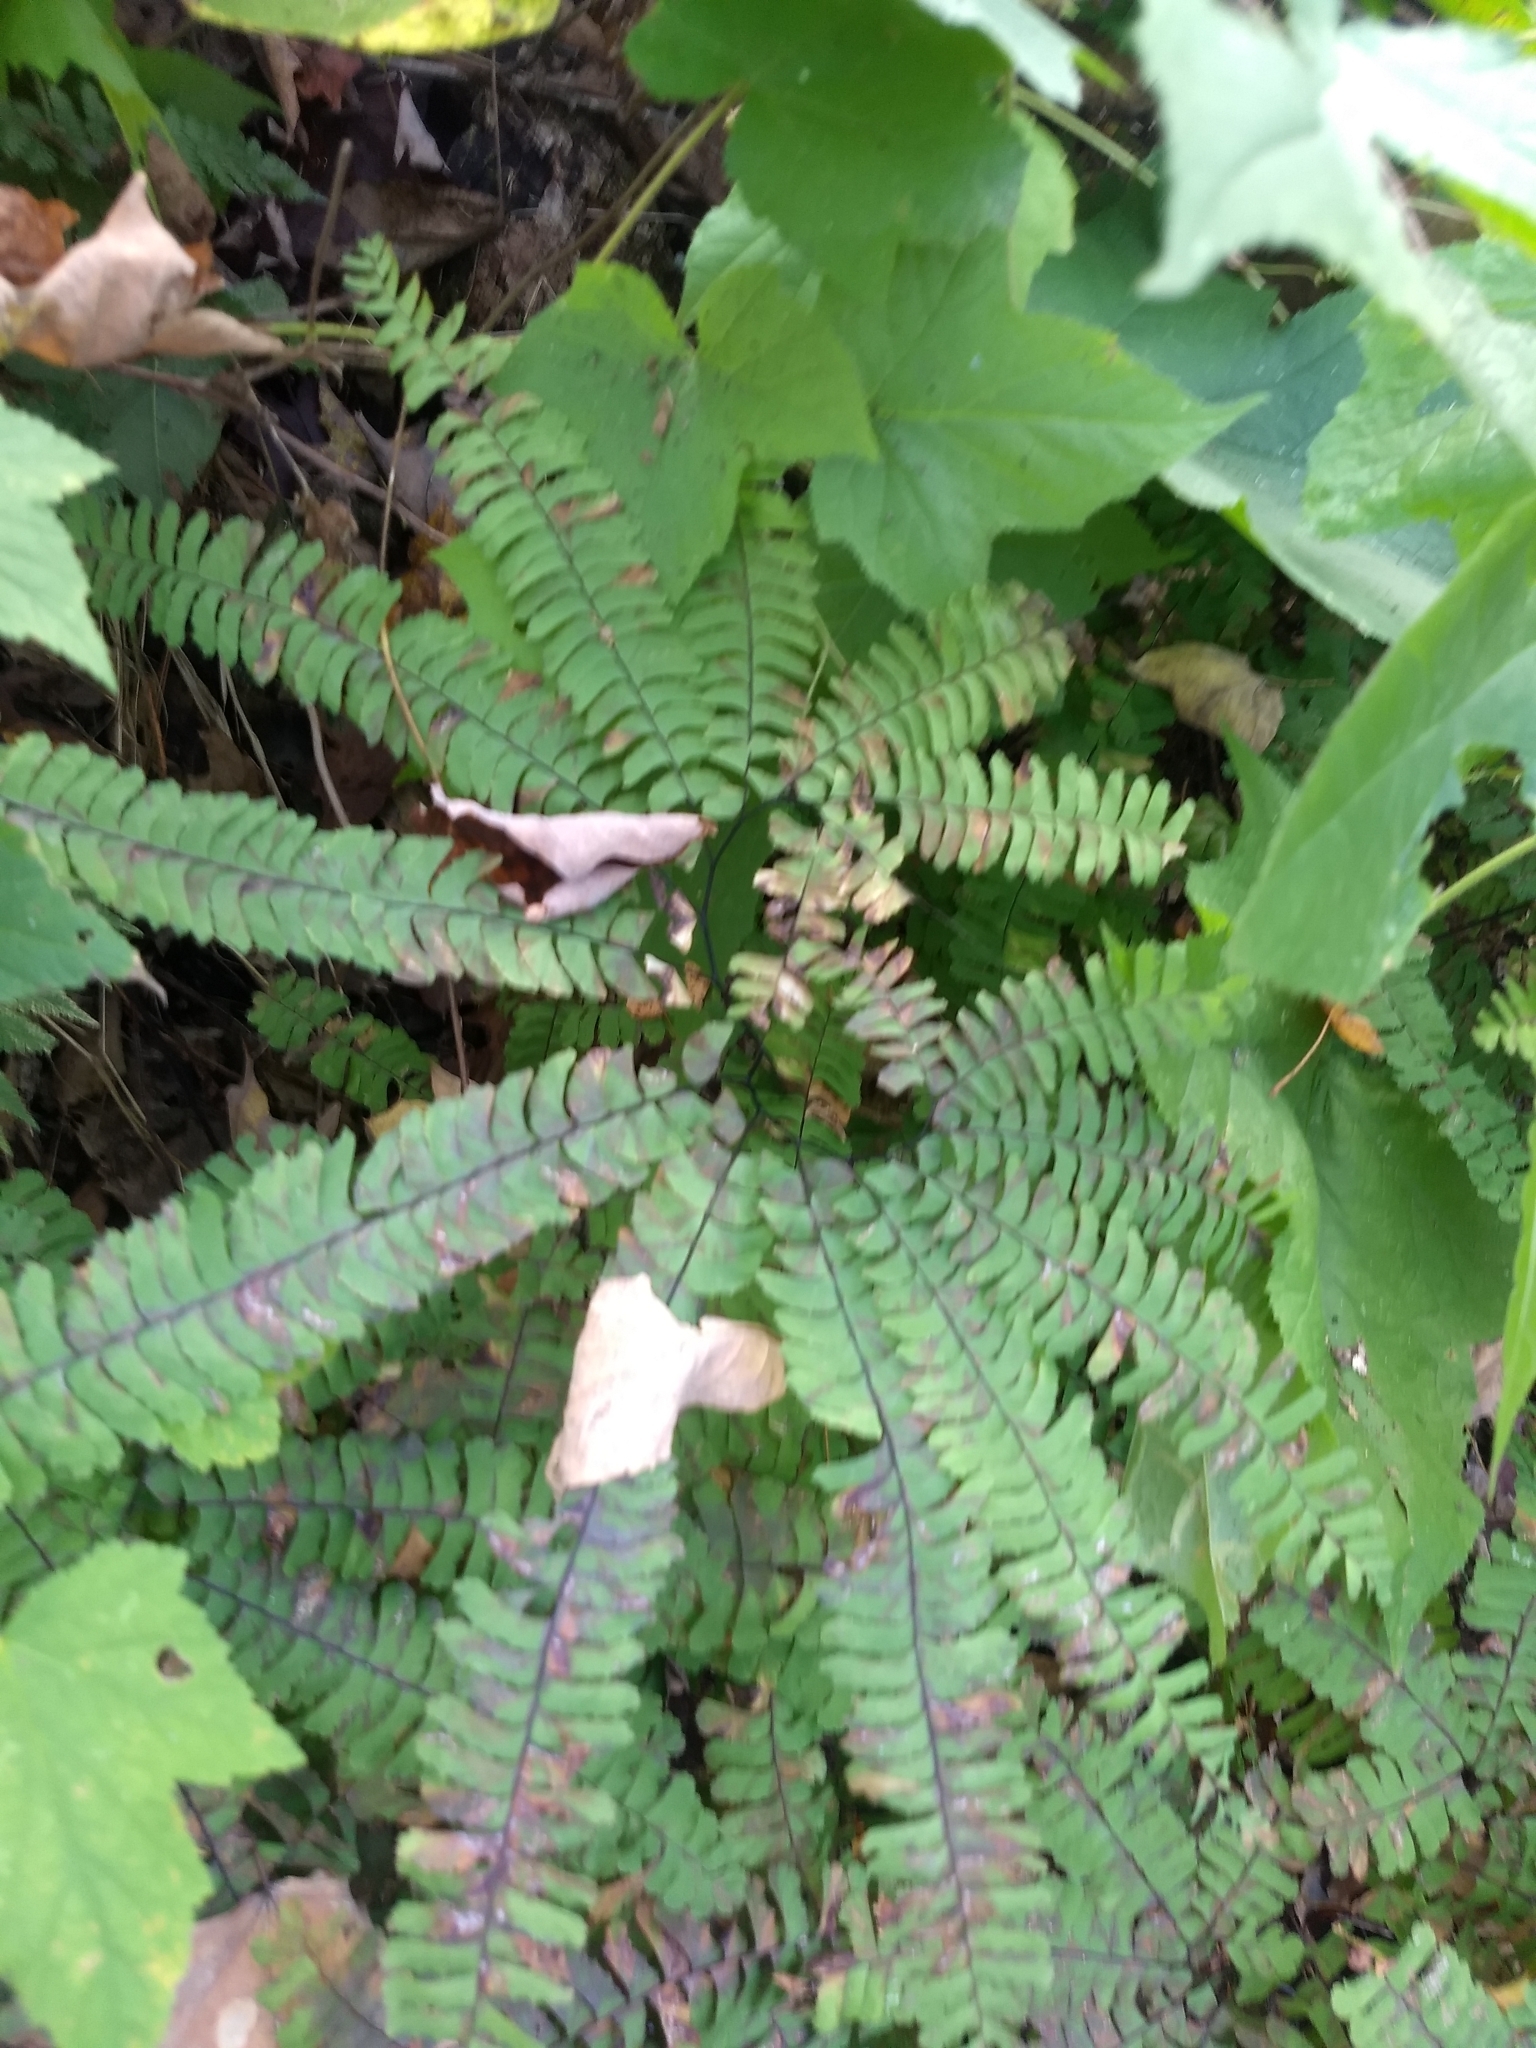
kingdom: Plantae
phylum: Tracheophyta
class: Polypodiopsida
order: Polypodiales
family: Pteridaceae
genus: Adiantum
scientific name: Adiantum pedatum
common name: Five-finger fern
